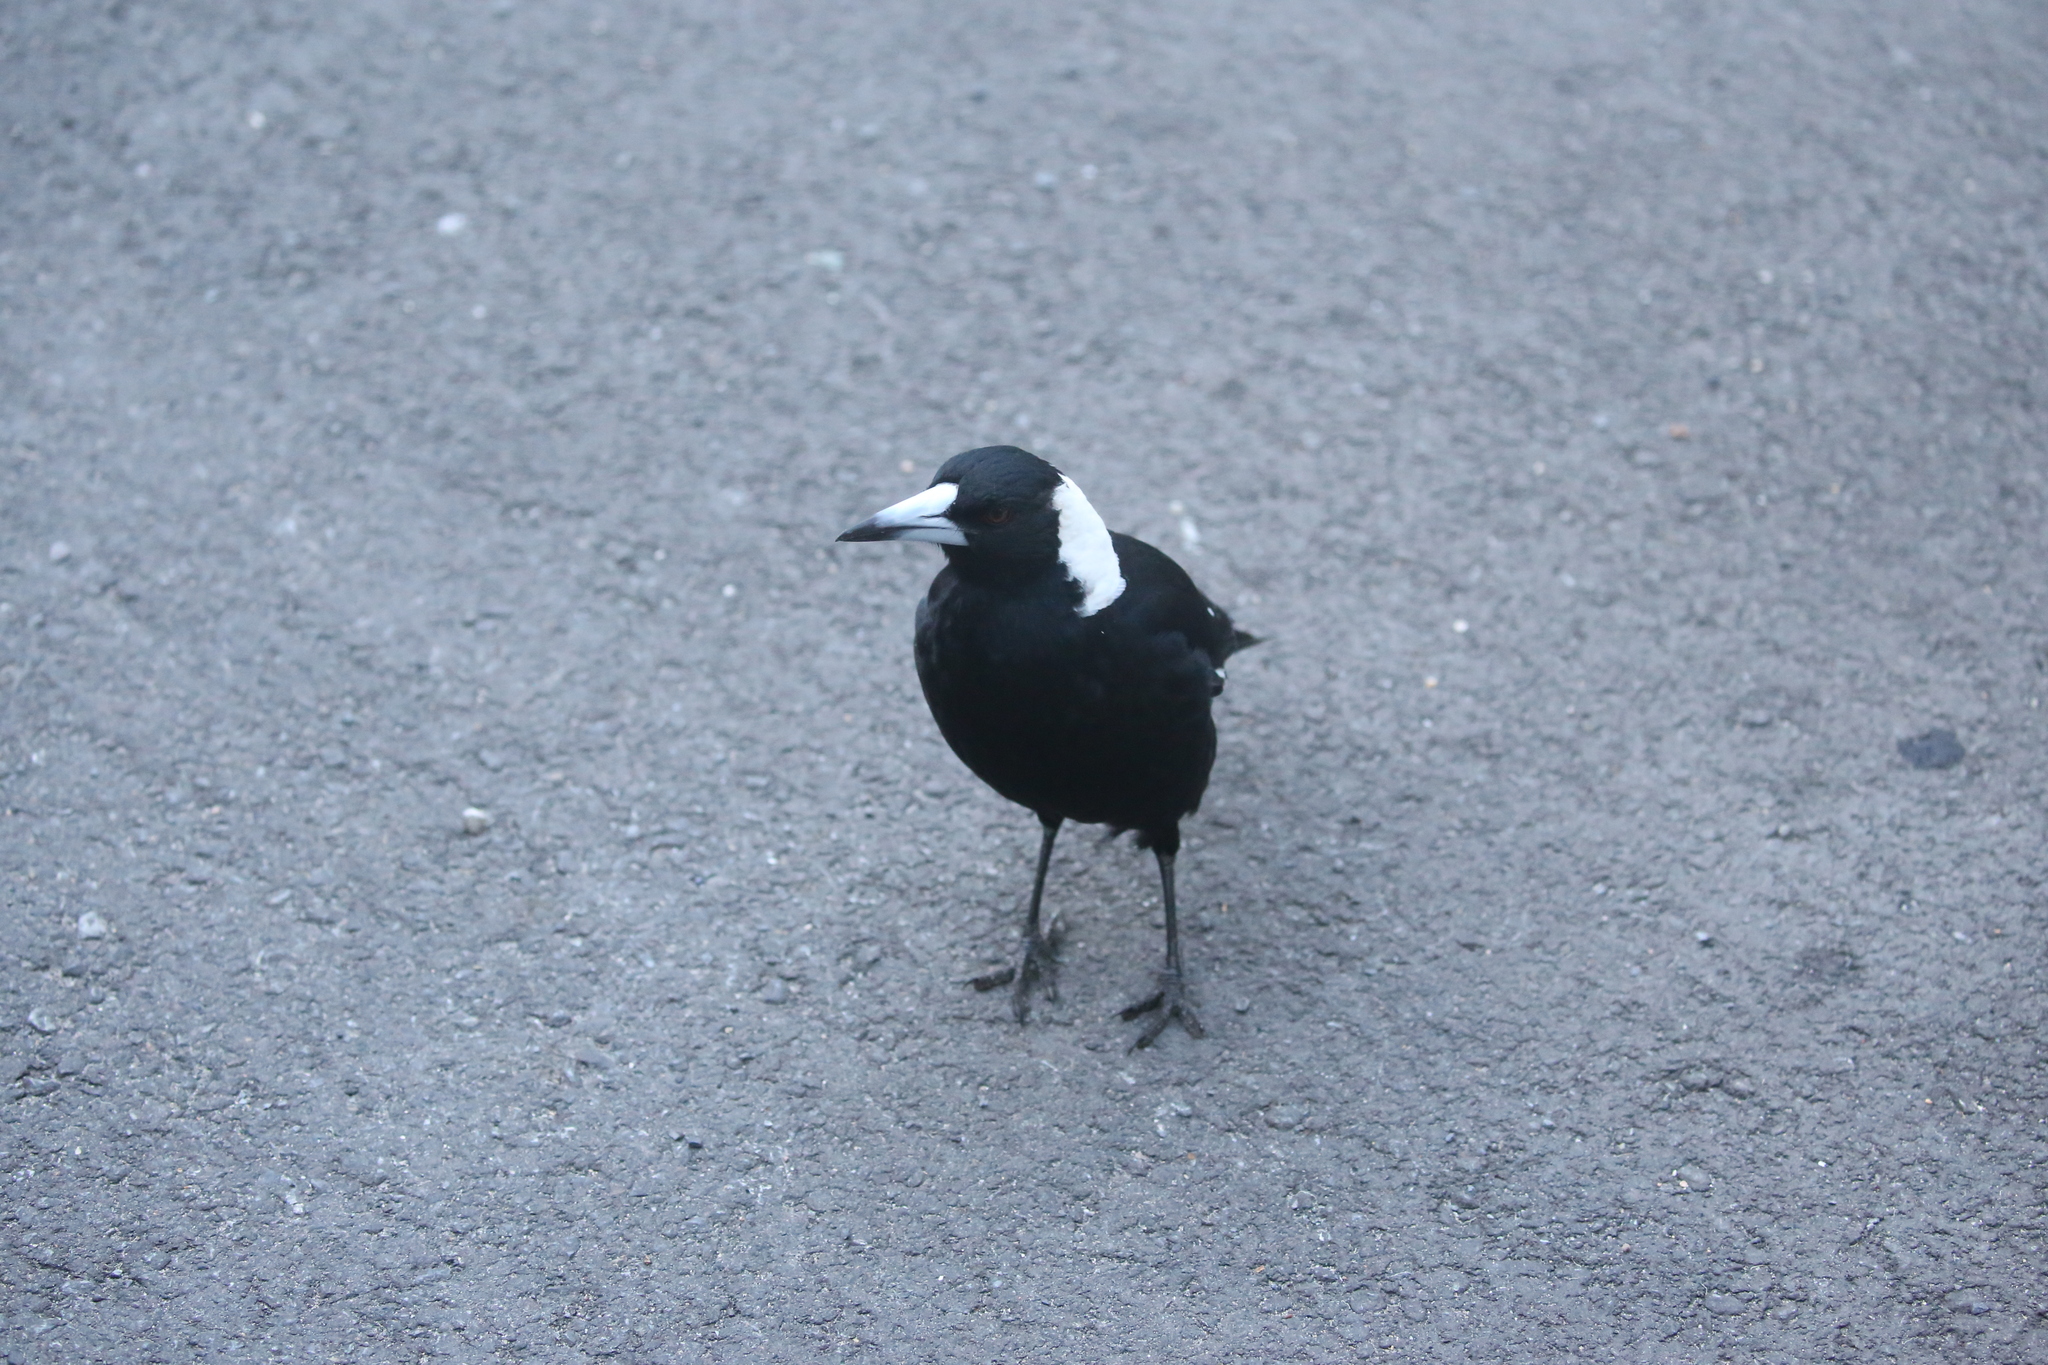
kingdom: Animalia
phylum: Chordata
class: Aves
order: Passeriformes
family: Cracticidae
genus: Gymnorhina
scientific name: Gymnorhina tibicen
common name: Australian magpie
